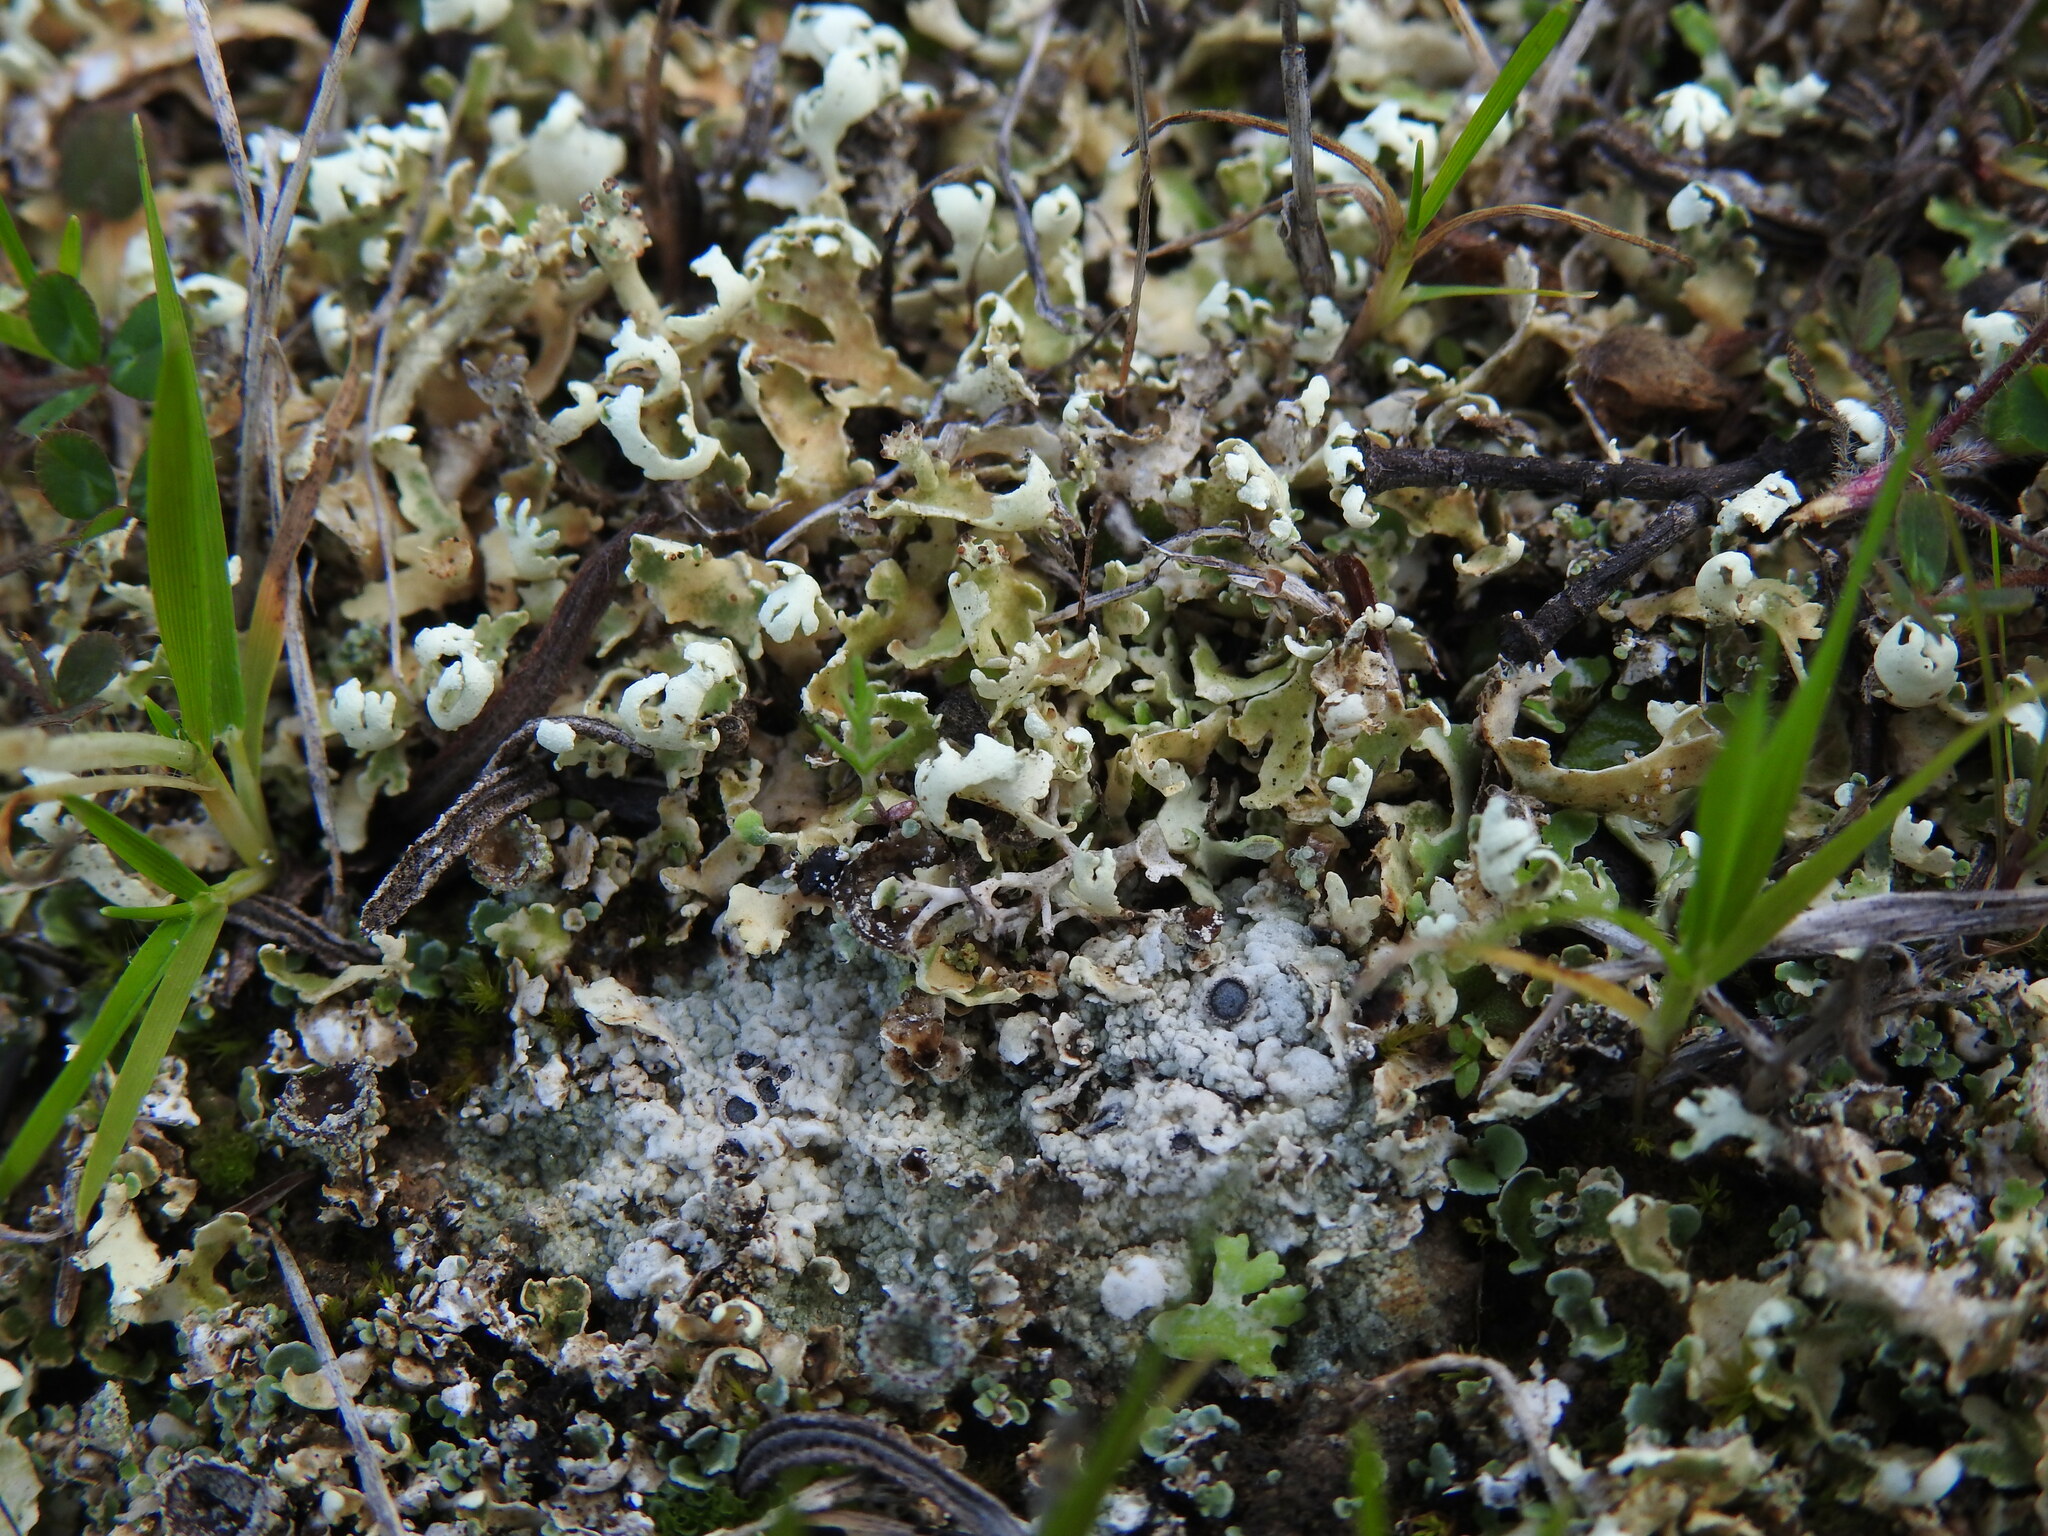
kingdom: Fungi
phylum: Ascomycota
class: Lecanoromycetes
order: Lecanorales
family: Cladoniaceae
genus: Cladonia
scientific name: Cladonia foliacea
